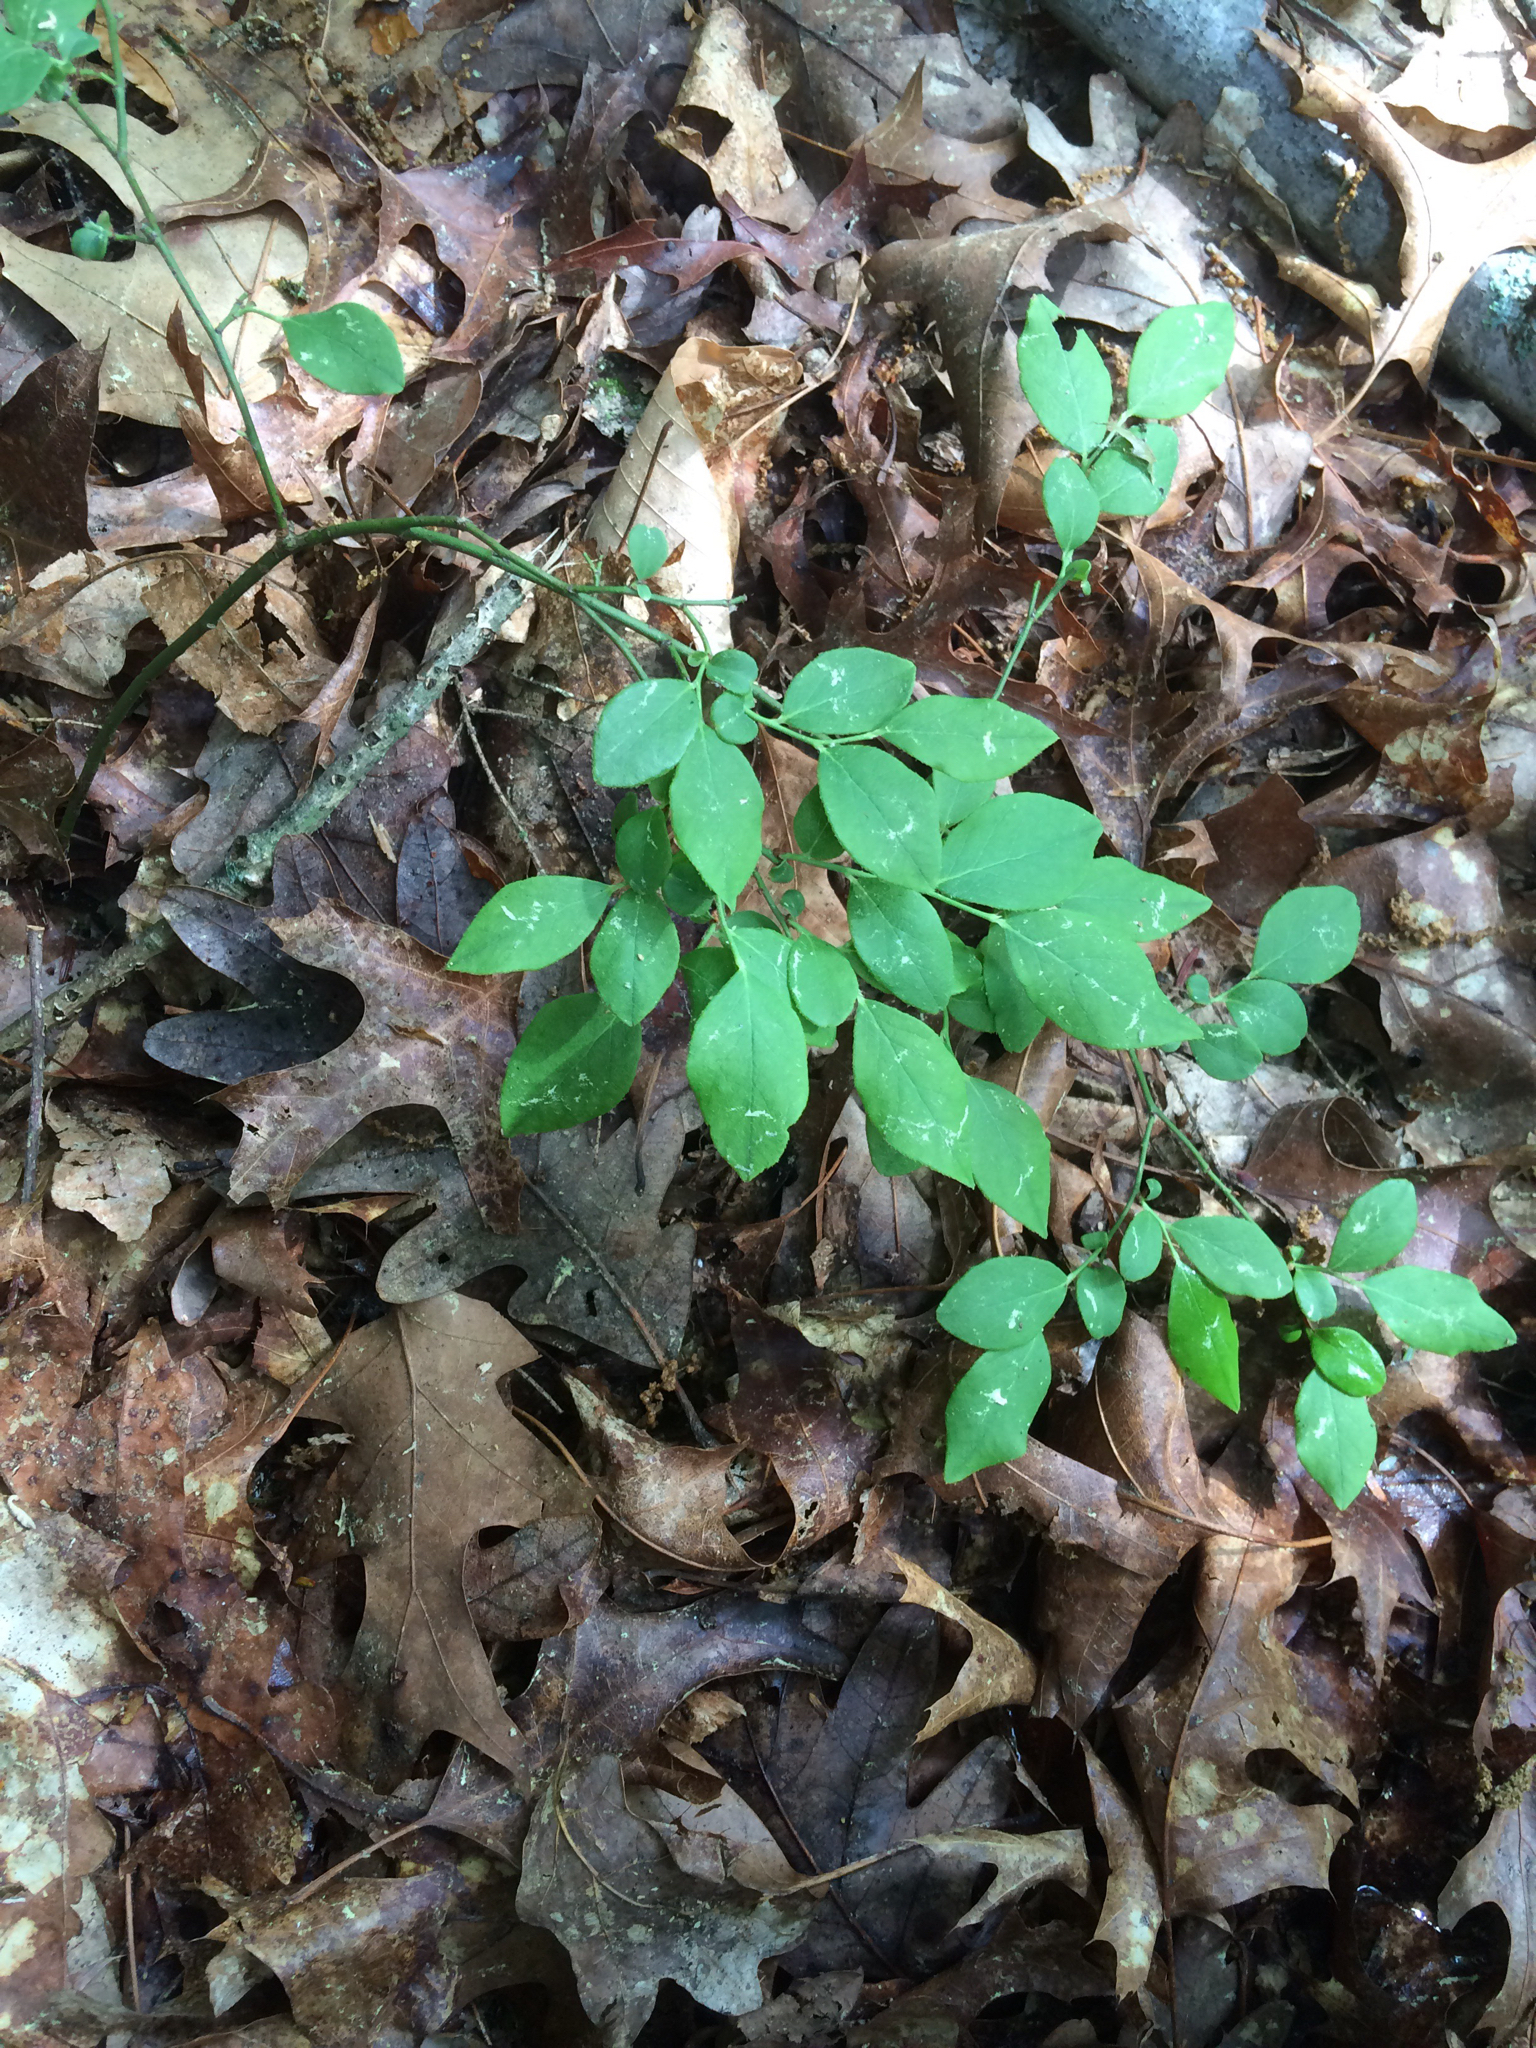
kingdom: Plantae
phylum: Tracheophyta
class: Magnoliopsida
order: Ericales
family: Ericaceae
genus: Vaccinium
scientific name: Vaccinium angustifolium
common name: Early lowbush blueberry
